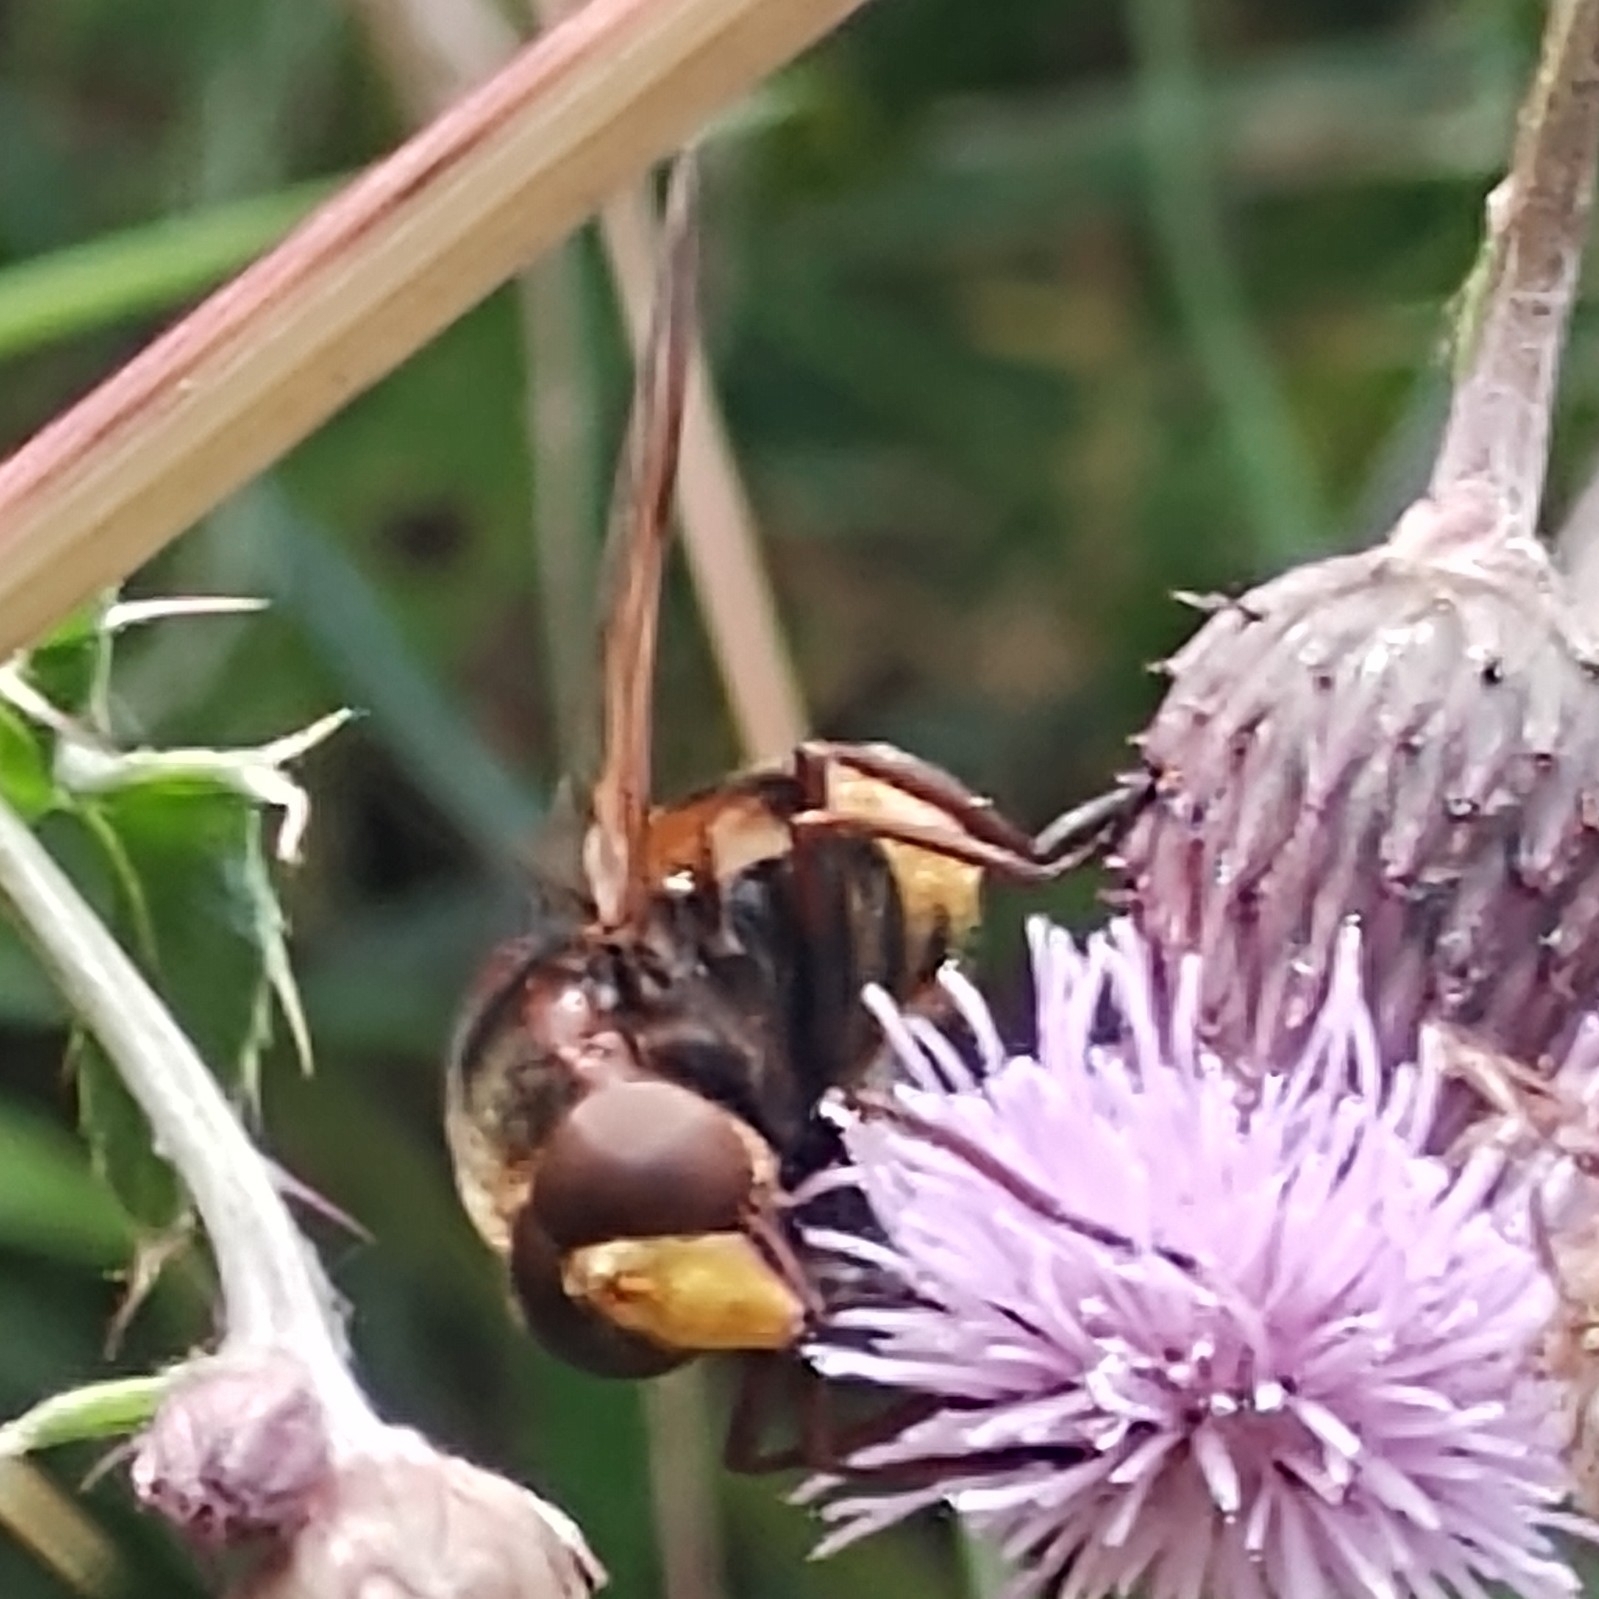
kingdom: Animalia
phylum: Arthropoda
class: Insecta
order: Diptera
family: Syrphidae
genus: Volucella
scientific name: Volucella zonaria
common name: Hornet hoverfly
